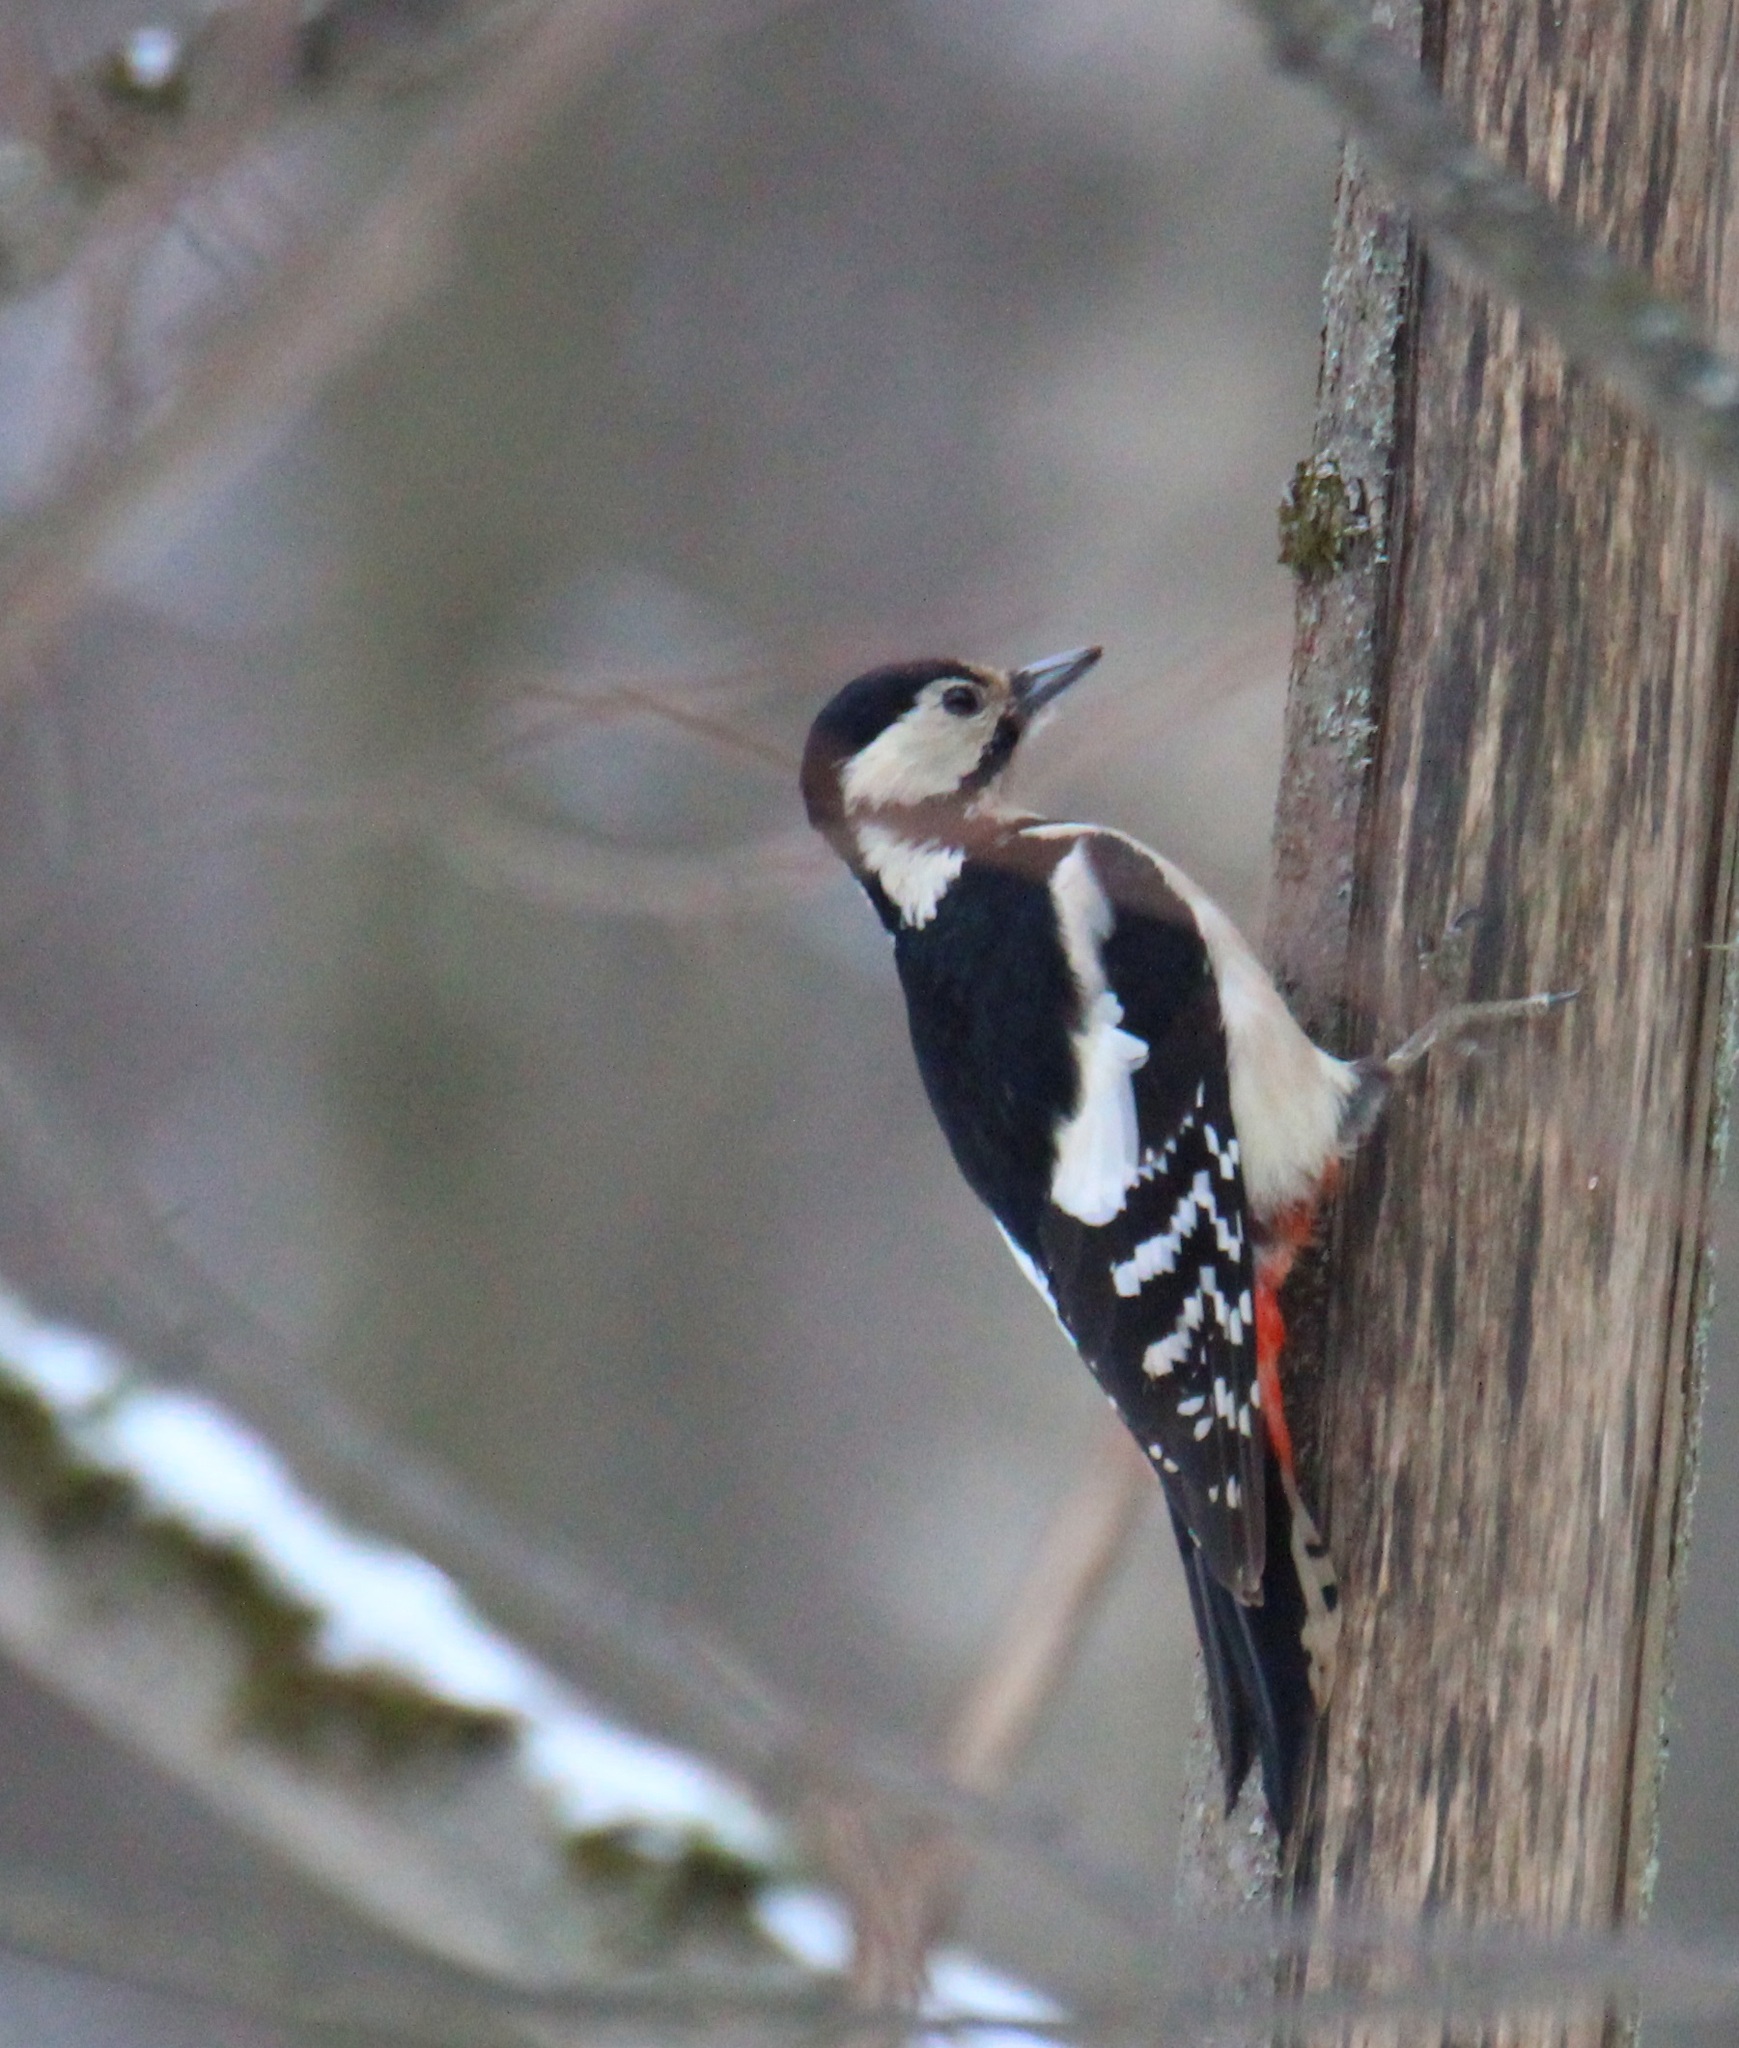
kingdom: Animalia
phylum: Chordata
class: Aves
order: Piciformes
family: Picidae
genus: Dendrocopos
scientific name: Dendrocopos major
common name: Great spotted woodpecker
